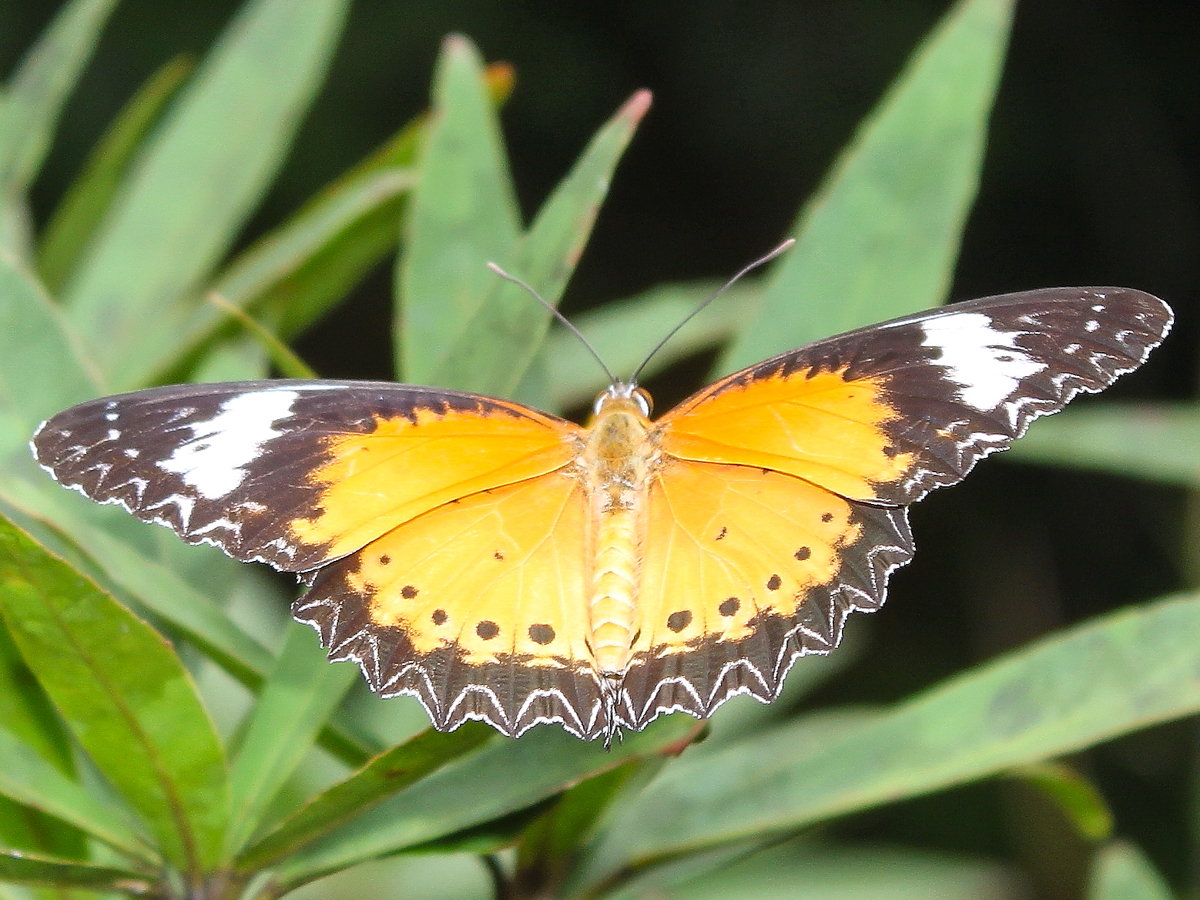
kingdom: Animalia
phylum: Arthropoda
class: Insecta
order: Lepidoptera
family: Nymphalidae
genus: Cethosia
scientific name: Cethosia cyane
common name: Leopard lacewing butterfly
